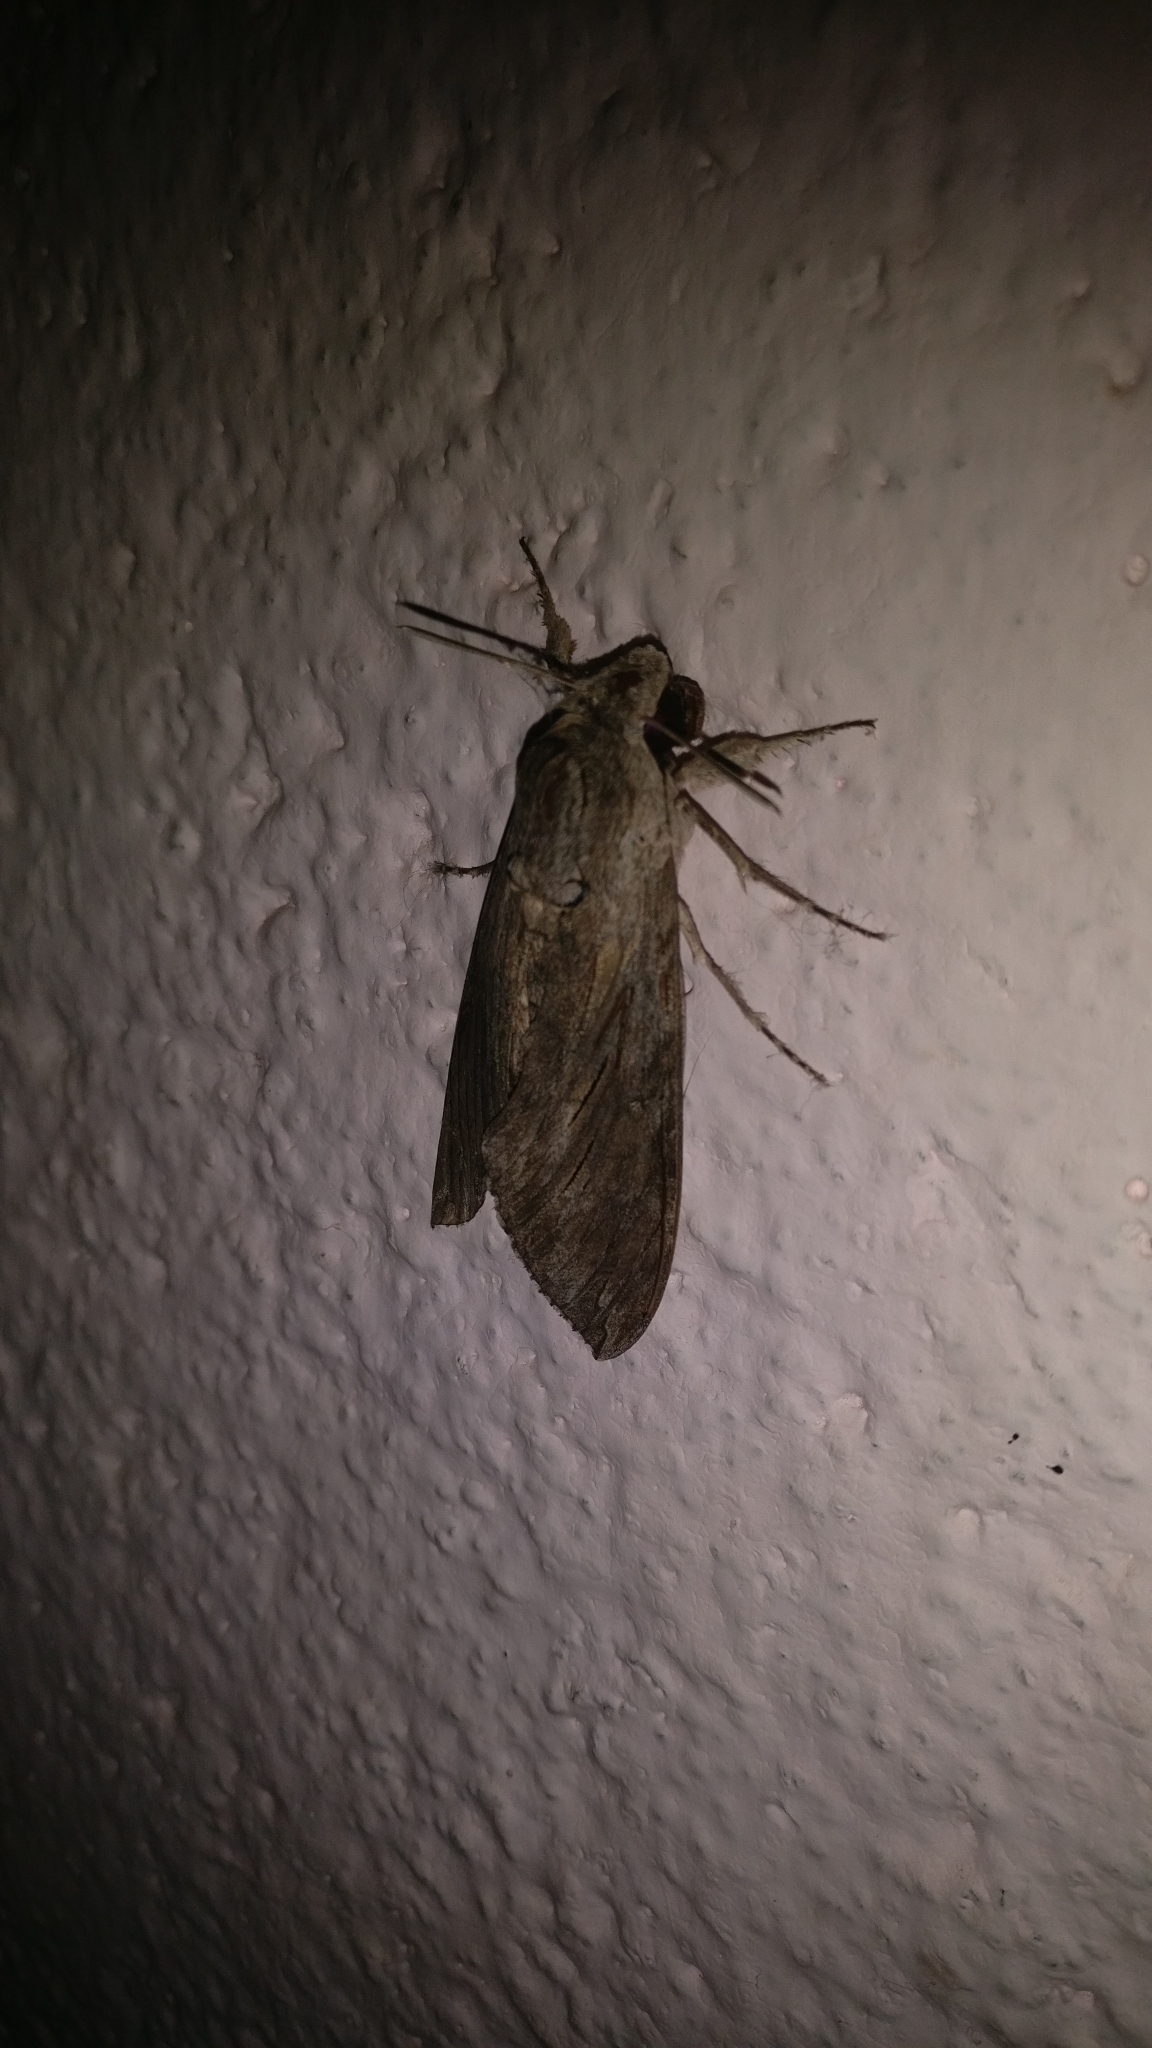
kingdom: Animalia
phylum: Arthropoda
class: Insecta
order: Lepidoptera
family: Sphingidae
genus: Agrius
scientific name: Agrius convolvuli
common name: Convolvulus hawkmoth
